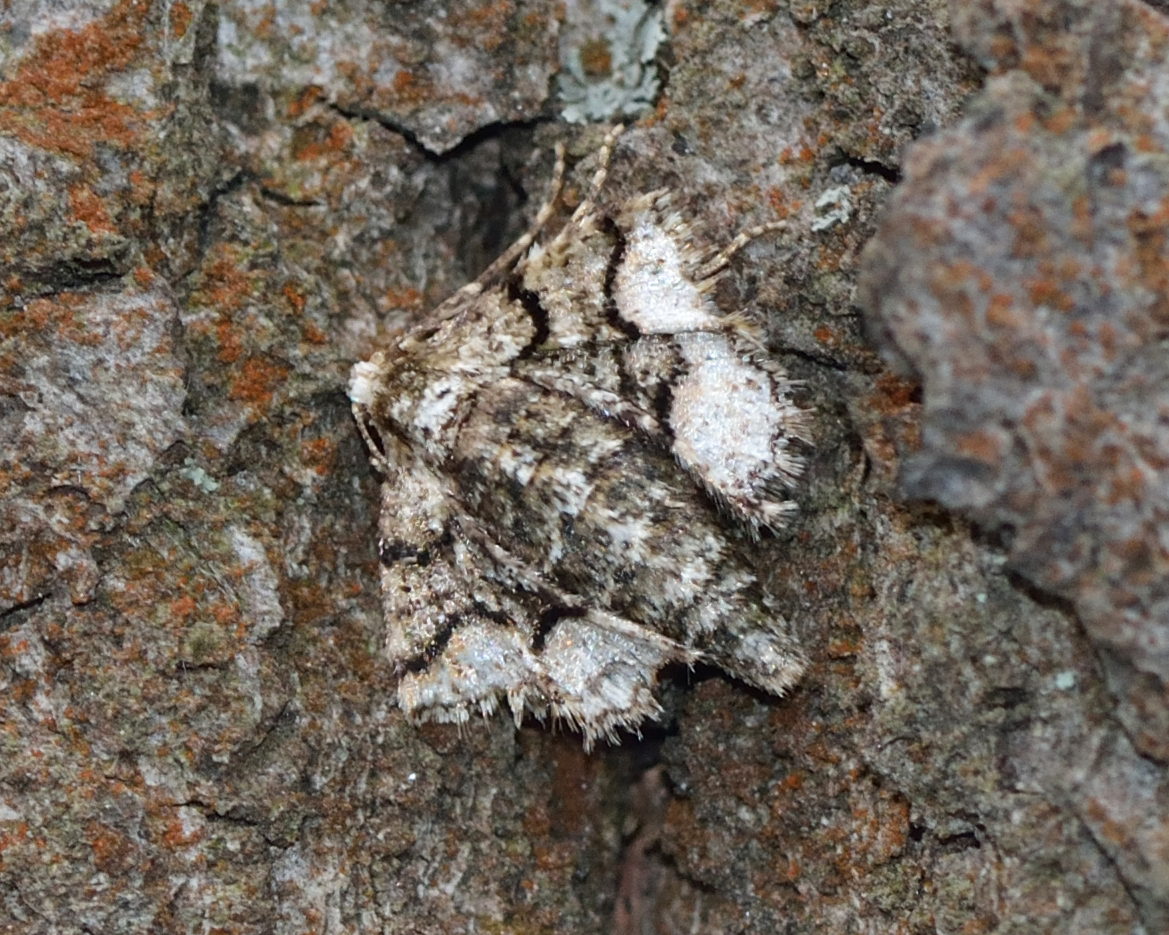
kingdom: Animalia
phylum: Arthropoda
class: Insecta
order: Lepidoptera
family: Geometridae
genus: Agriopis
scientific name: Agriopis marginaria
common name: Dotted border
